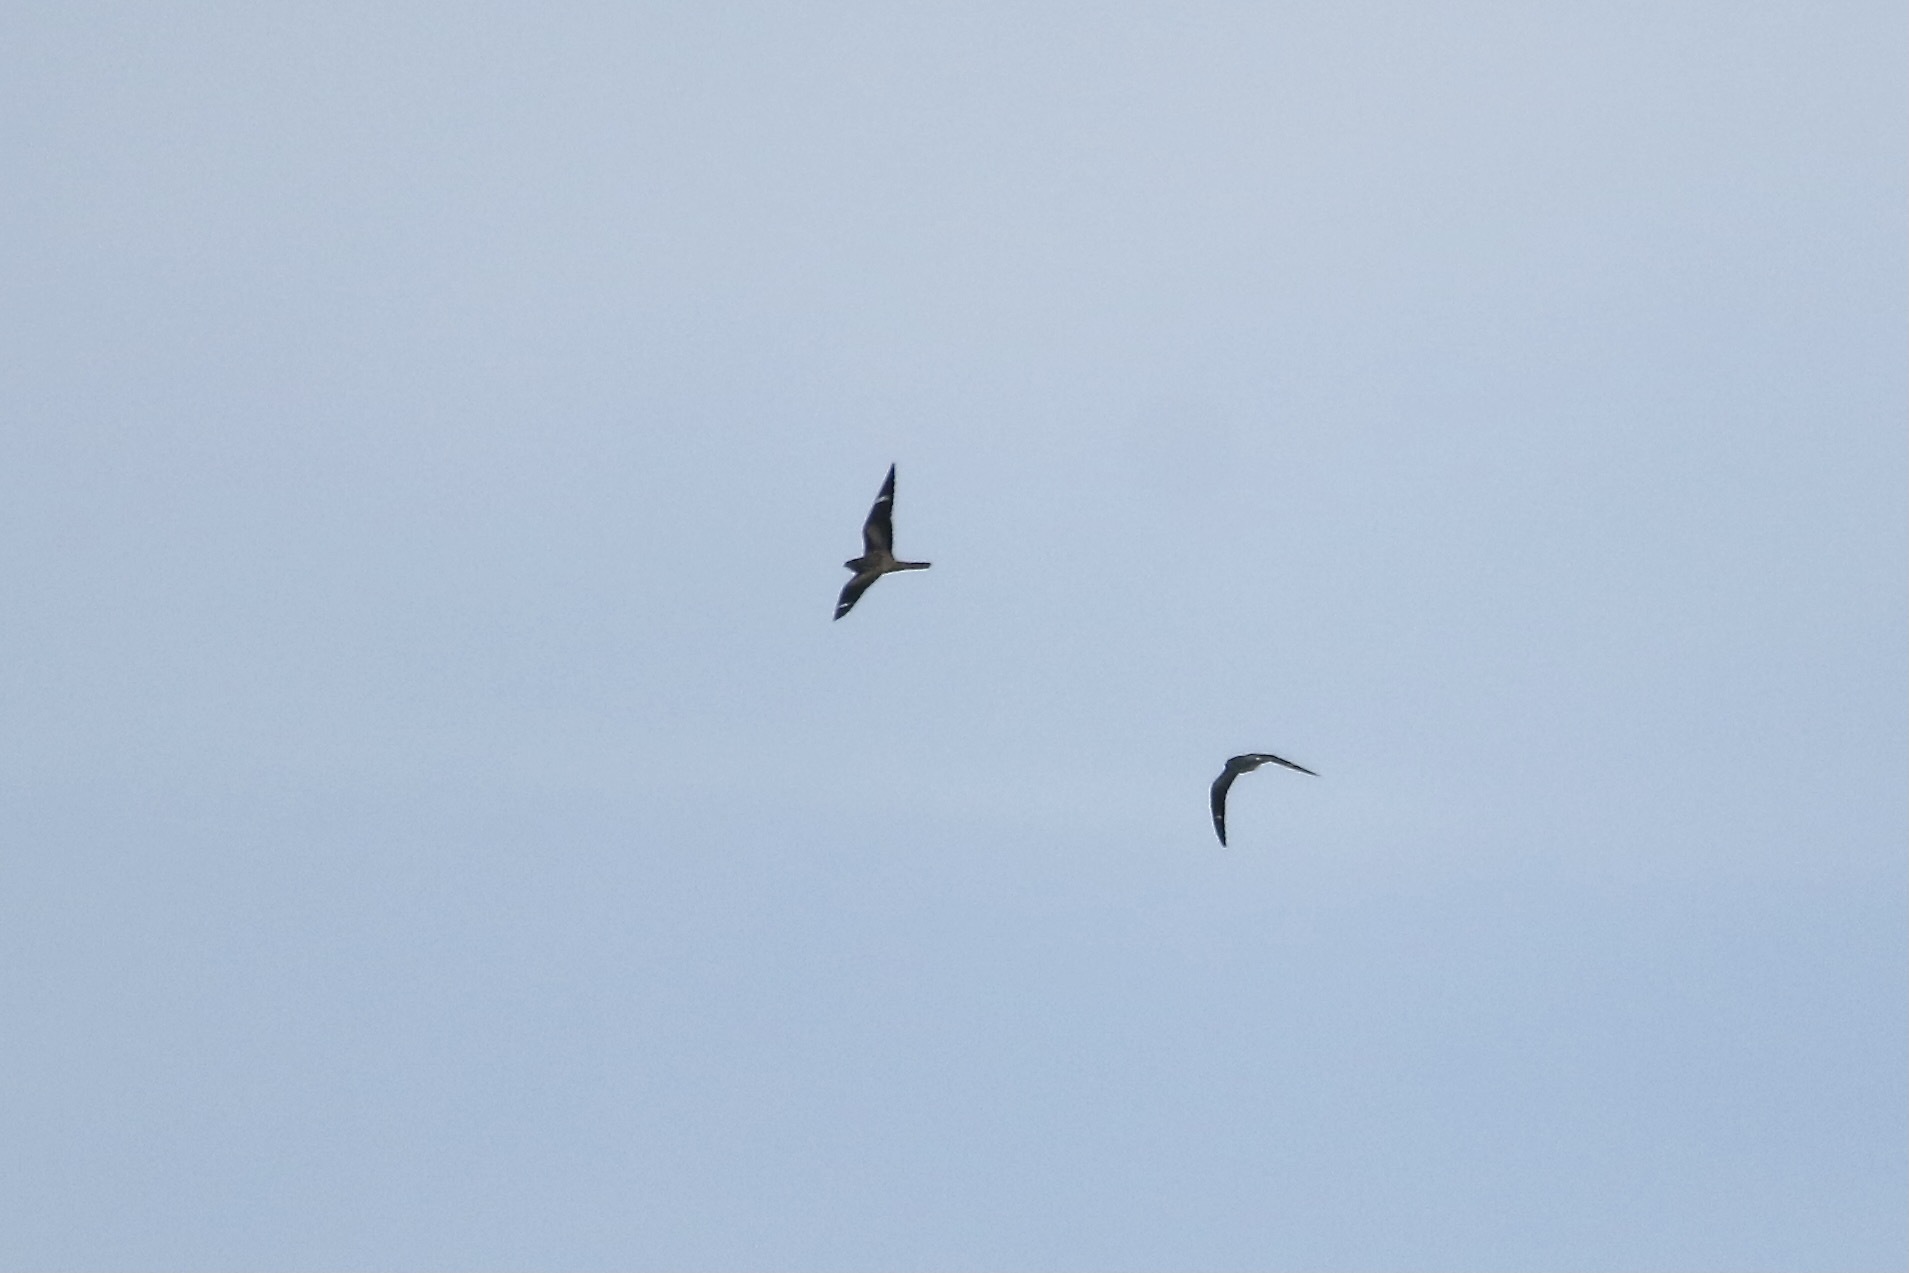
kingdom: Animalia
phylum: Chordata
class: Aves
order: Caprimulgiformes
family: Caprimulgidae
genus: Chordeiles
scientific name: Chordeiles minor
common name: Common nighthawk
